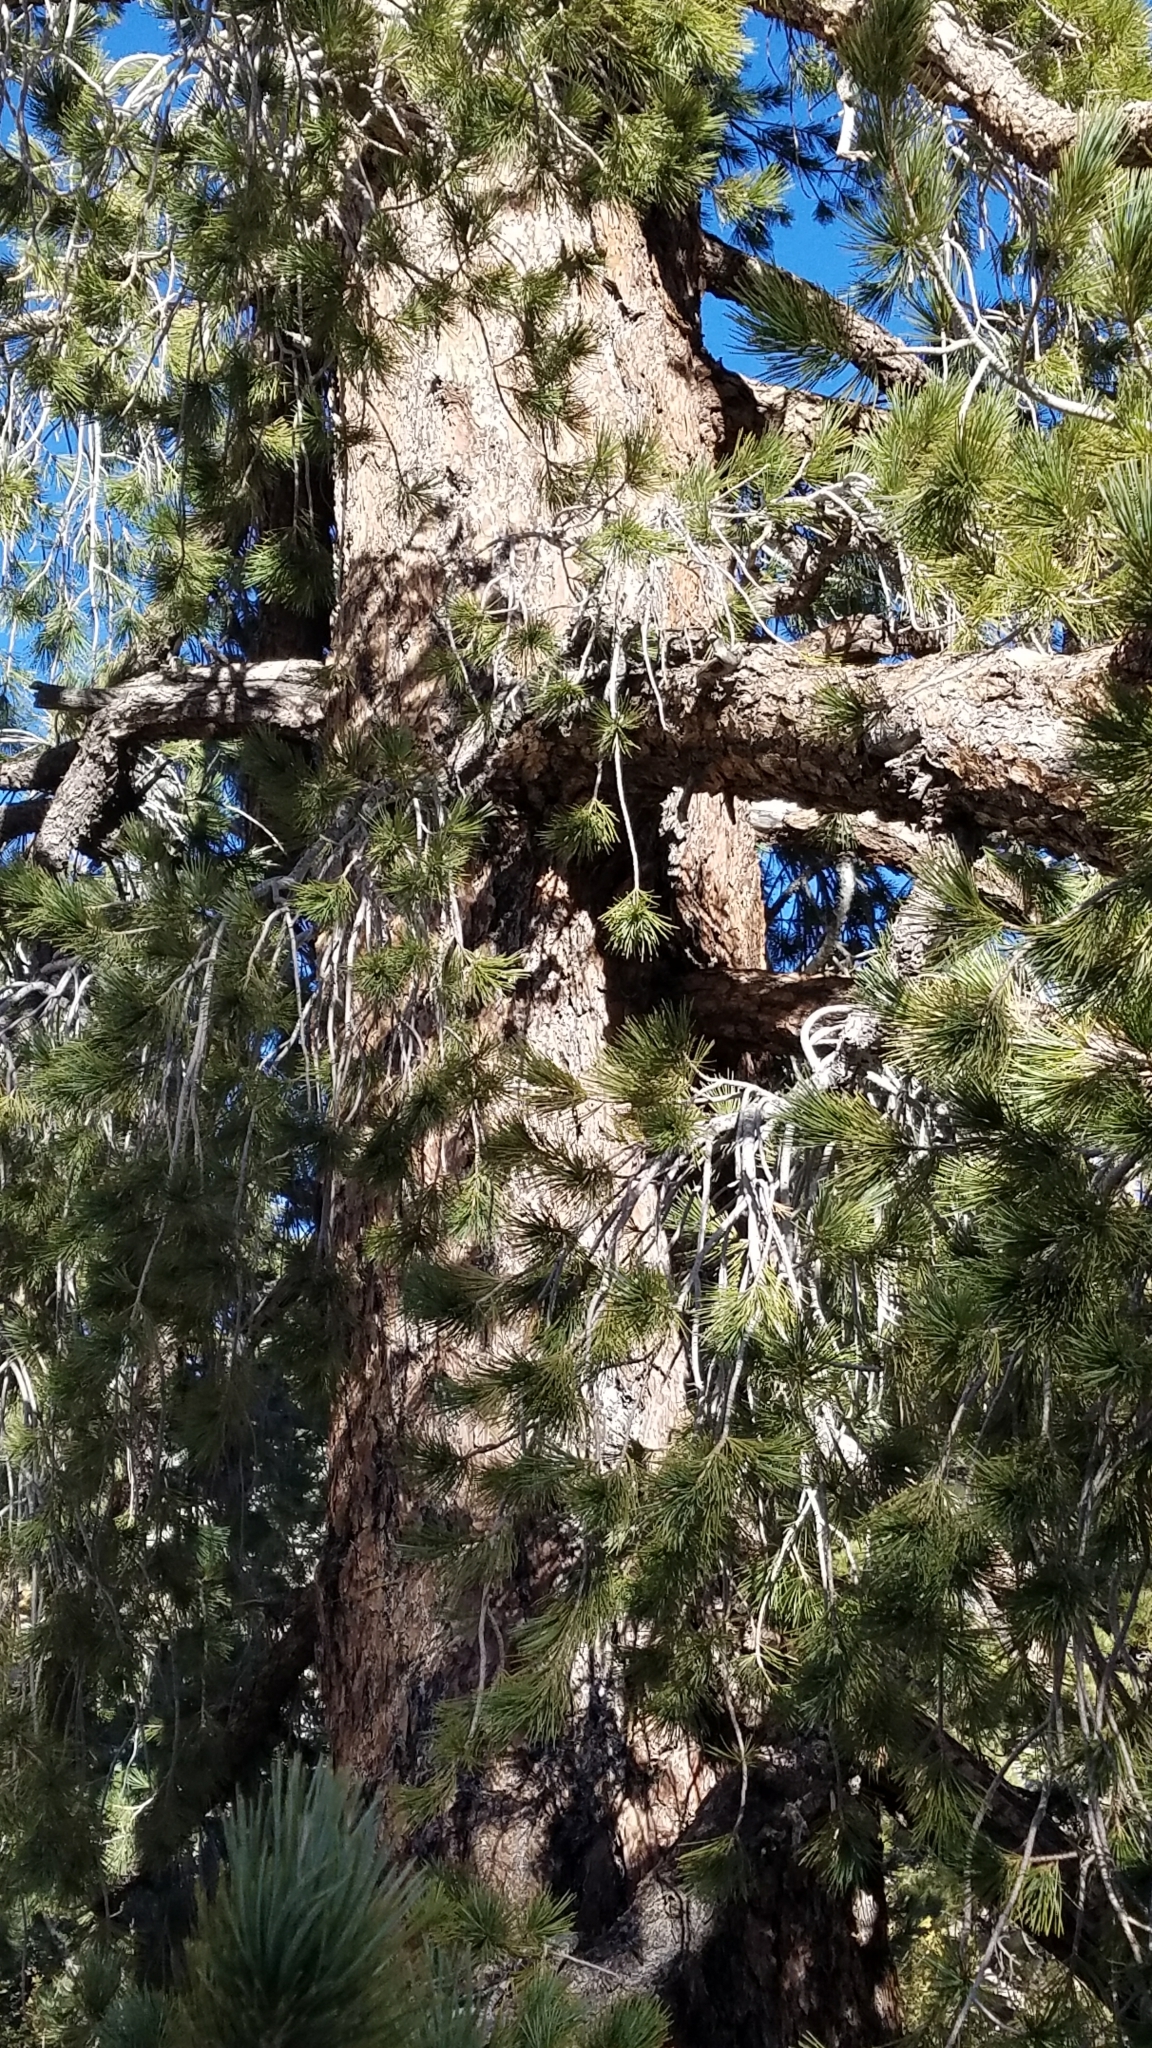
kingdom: Plantae
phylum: Tracheophyta
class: Pinopsida
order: Pinales
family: Pinaceae
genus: Pinus
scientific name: Pinus lambertiana
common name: Sugar pine
